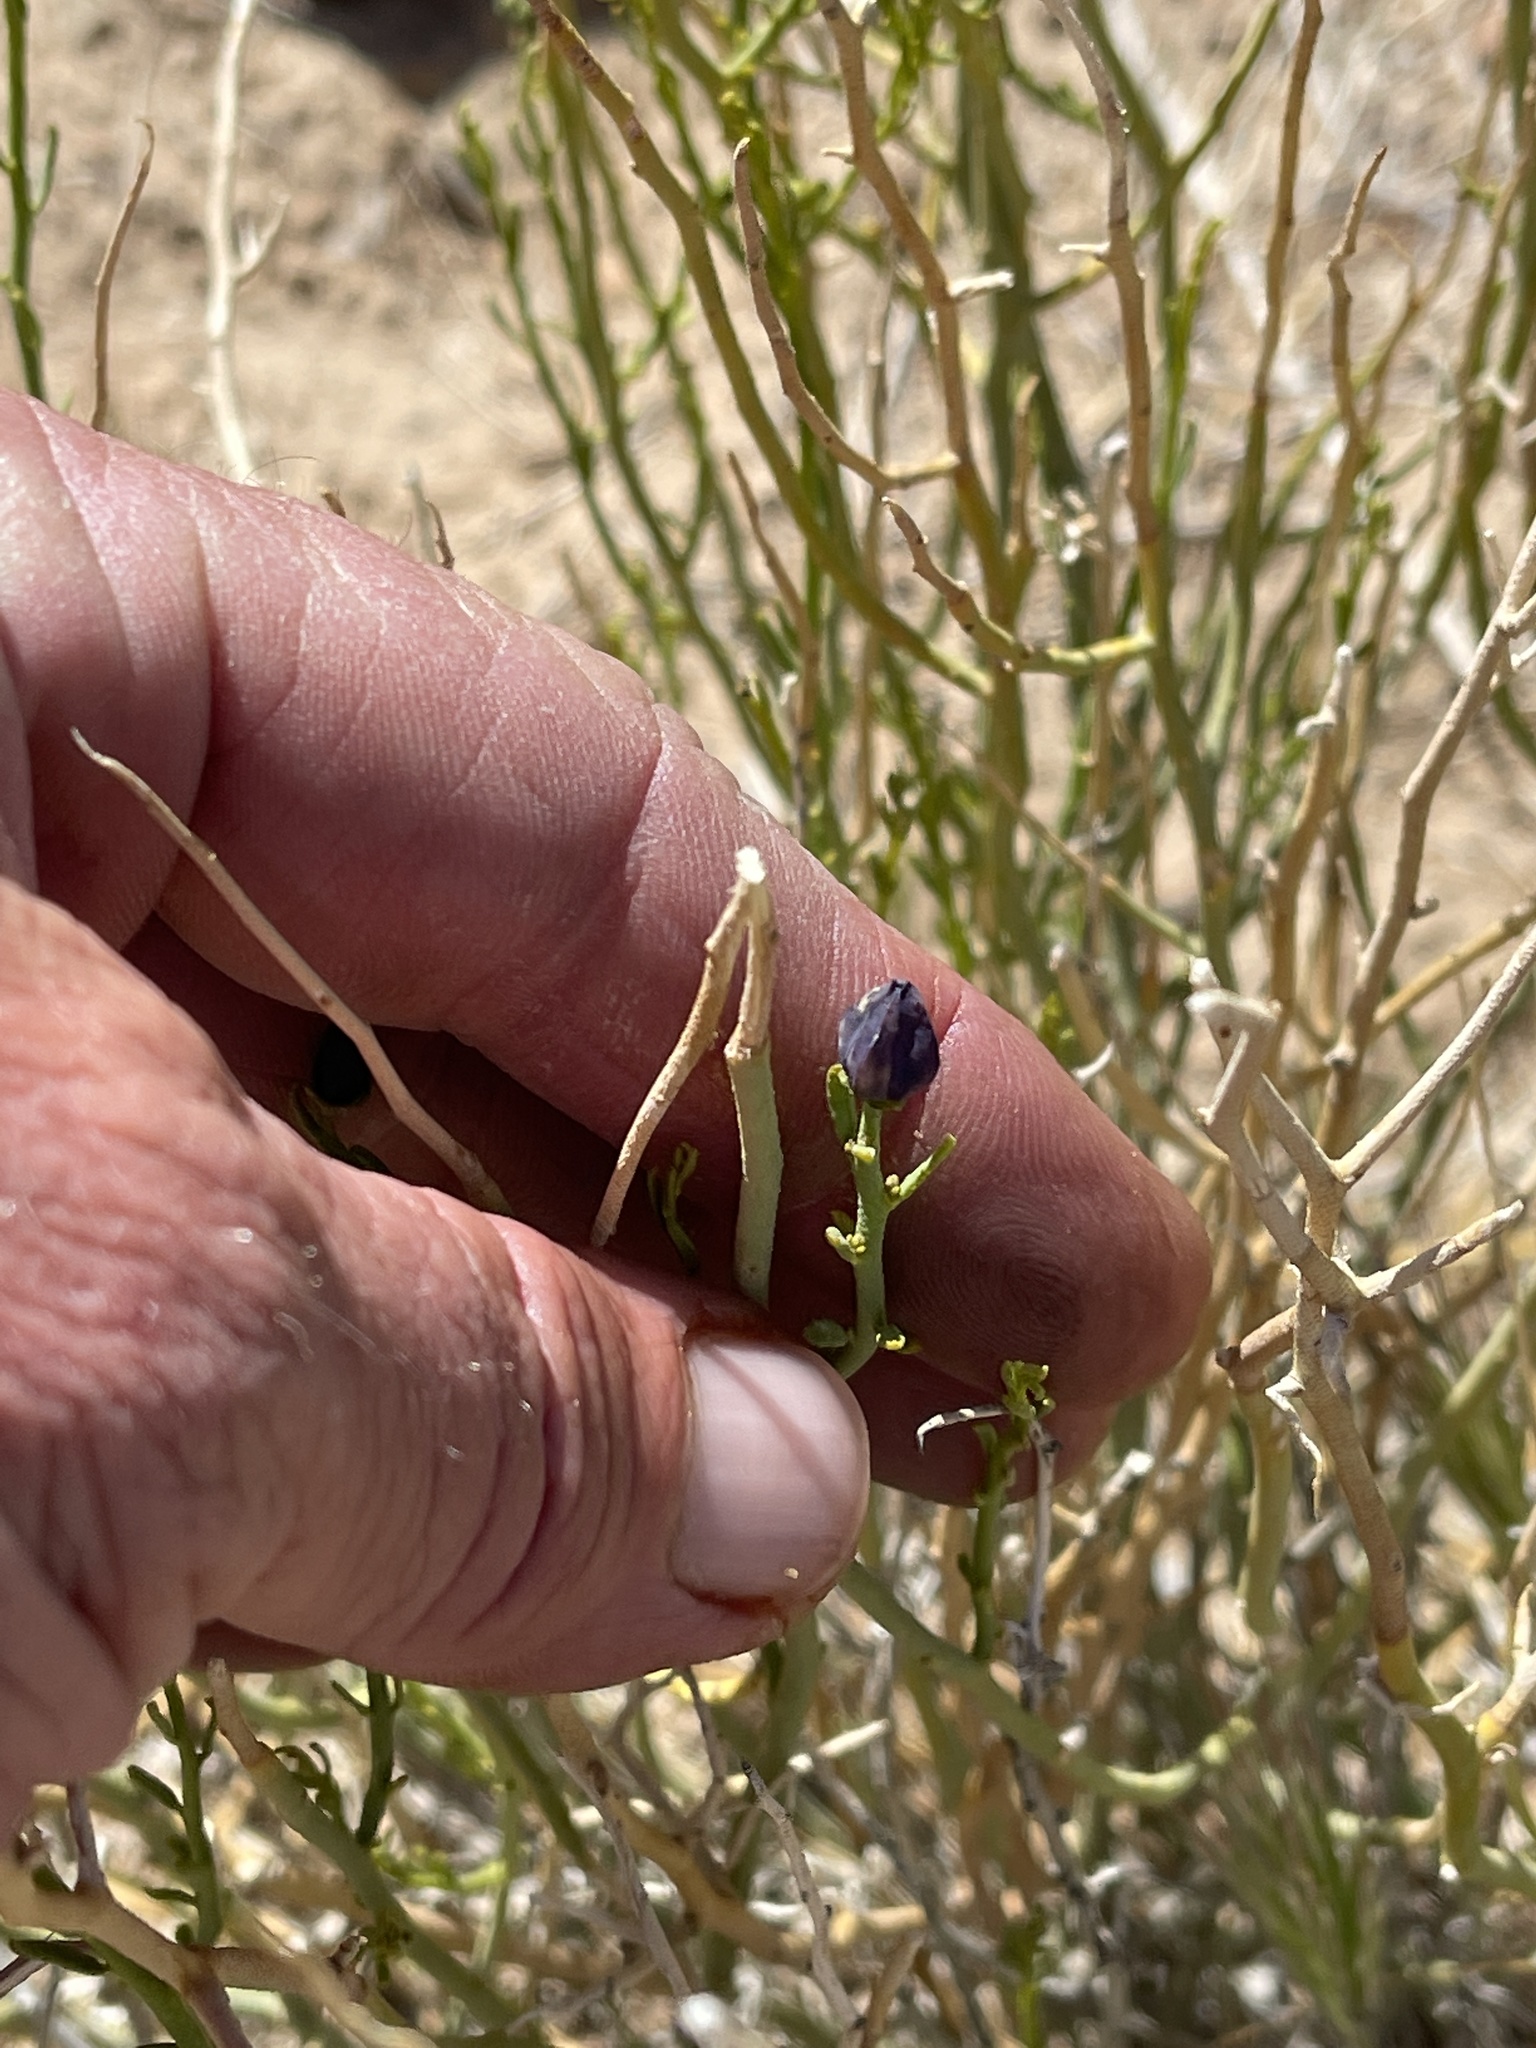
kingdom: Plantae
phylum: Tracheophyta
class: Magnoliopsida
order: Sapindales
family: Rutaceae
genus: Thamnosma
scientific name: Thamnosma montana
